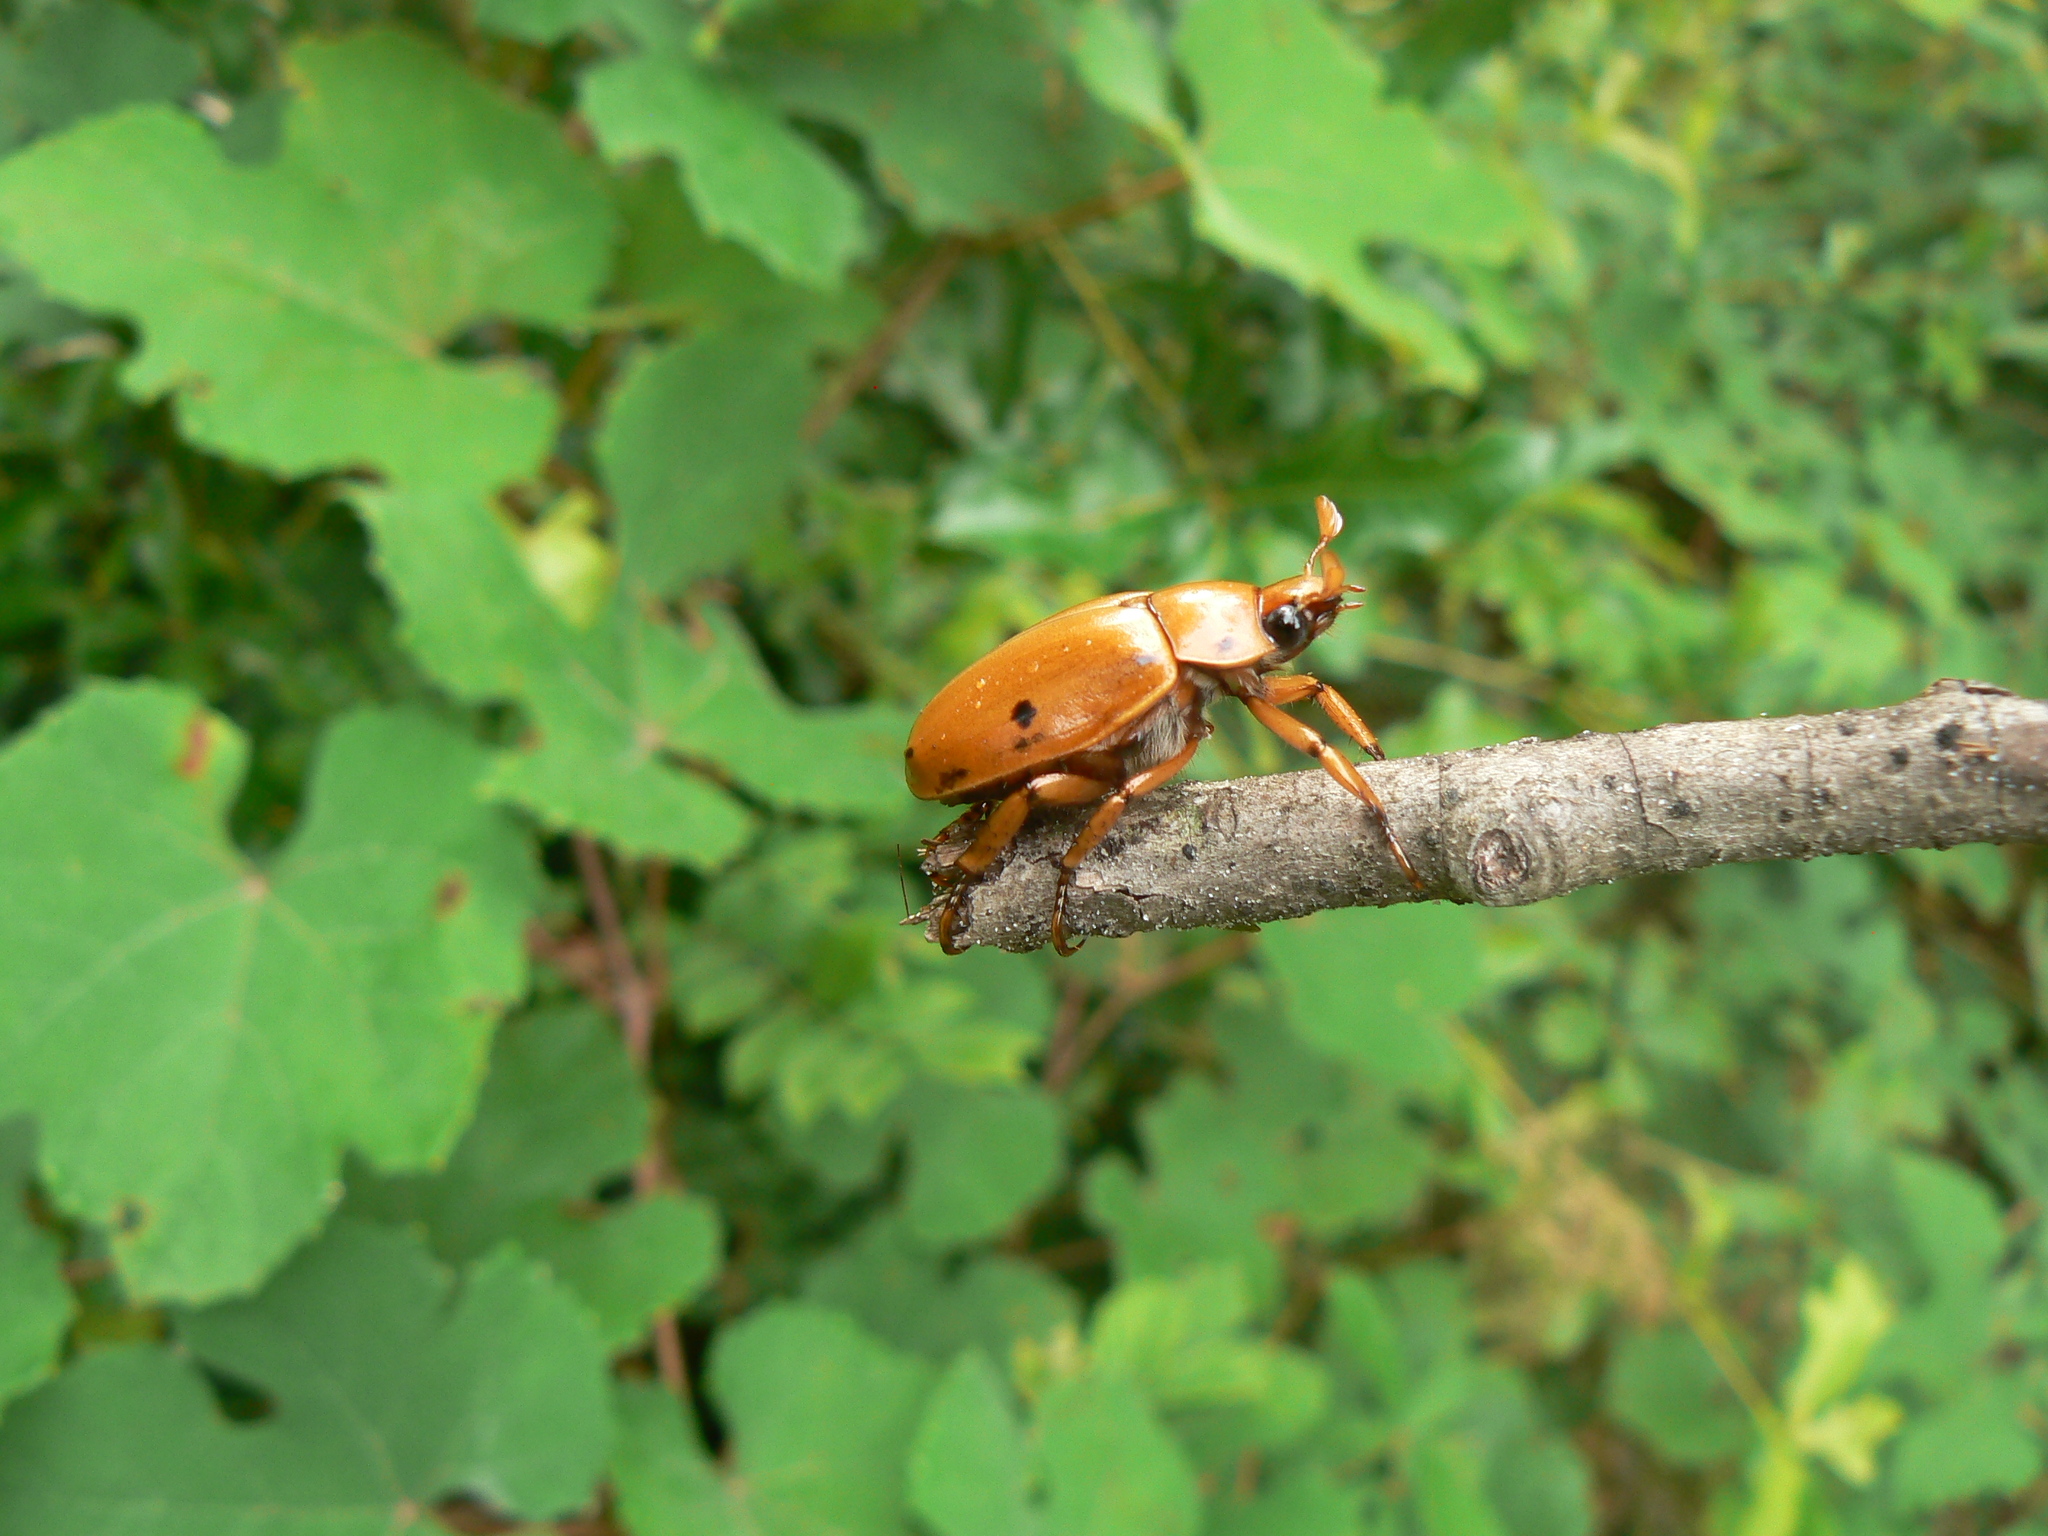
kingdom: Animalia
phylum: Arthropoda
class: Insecta
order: Coleoptera
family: Scarabaeidae
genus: Pelidnota
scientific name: Pelidnota punctata
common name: Grapevine beetle
